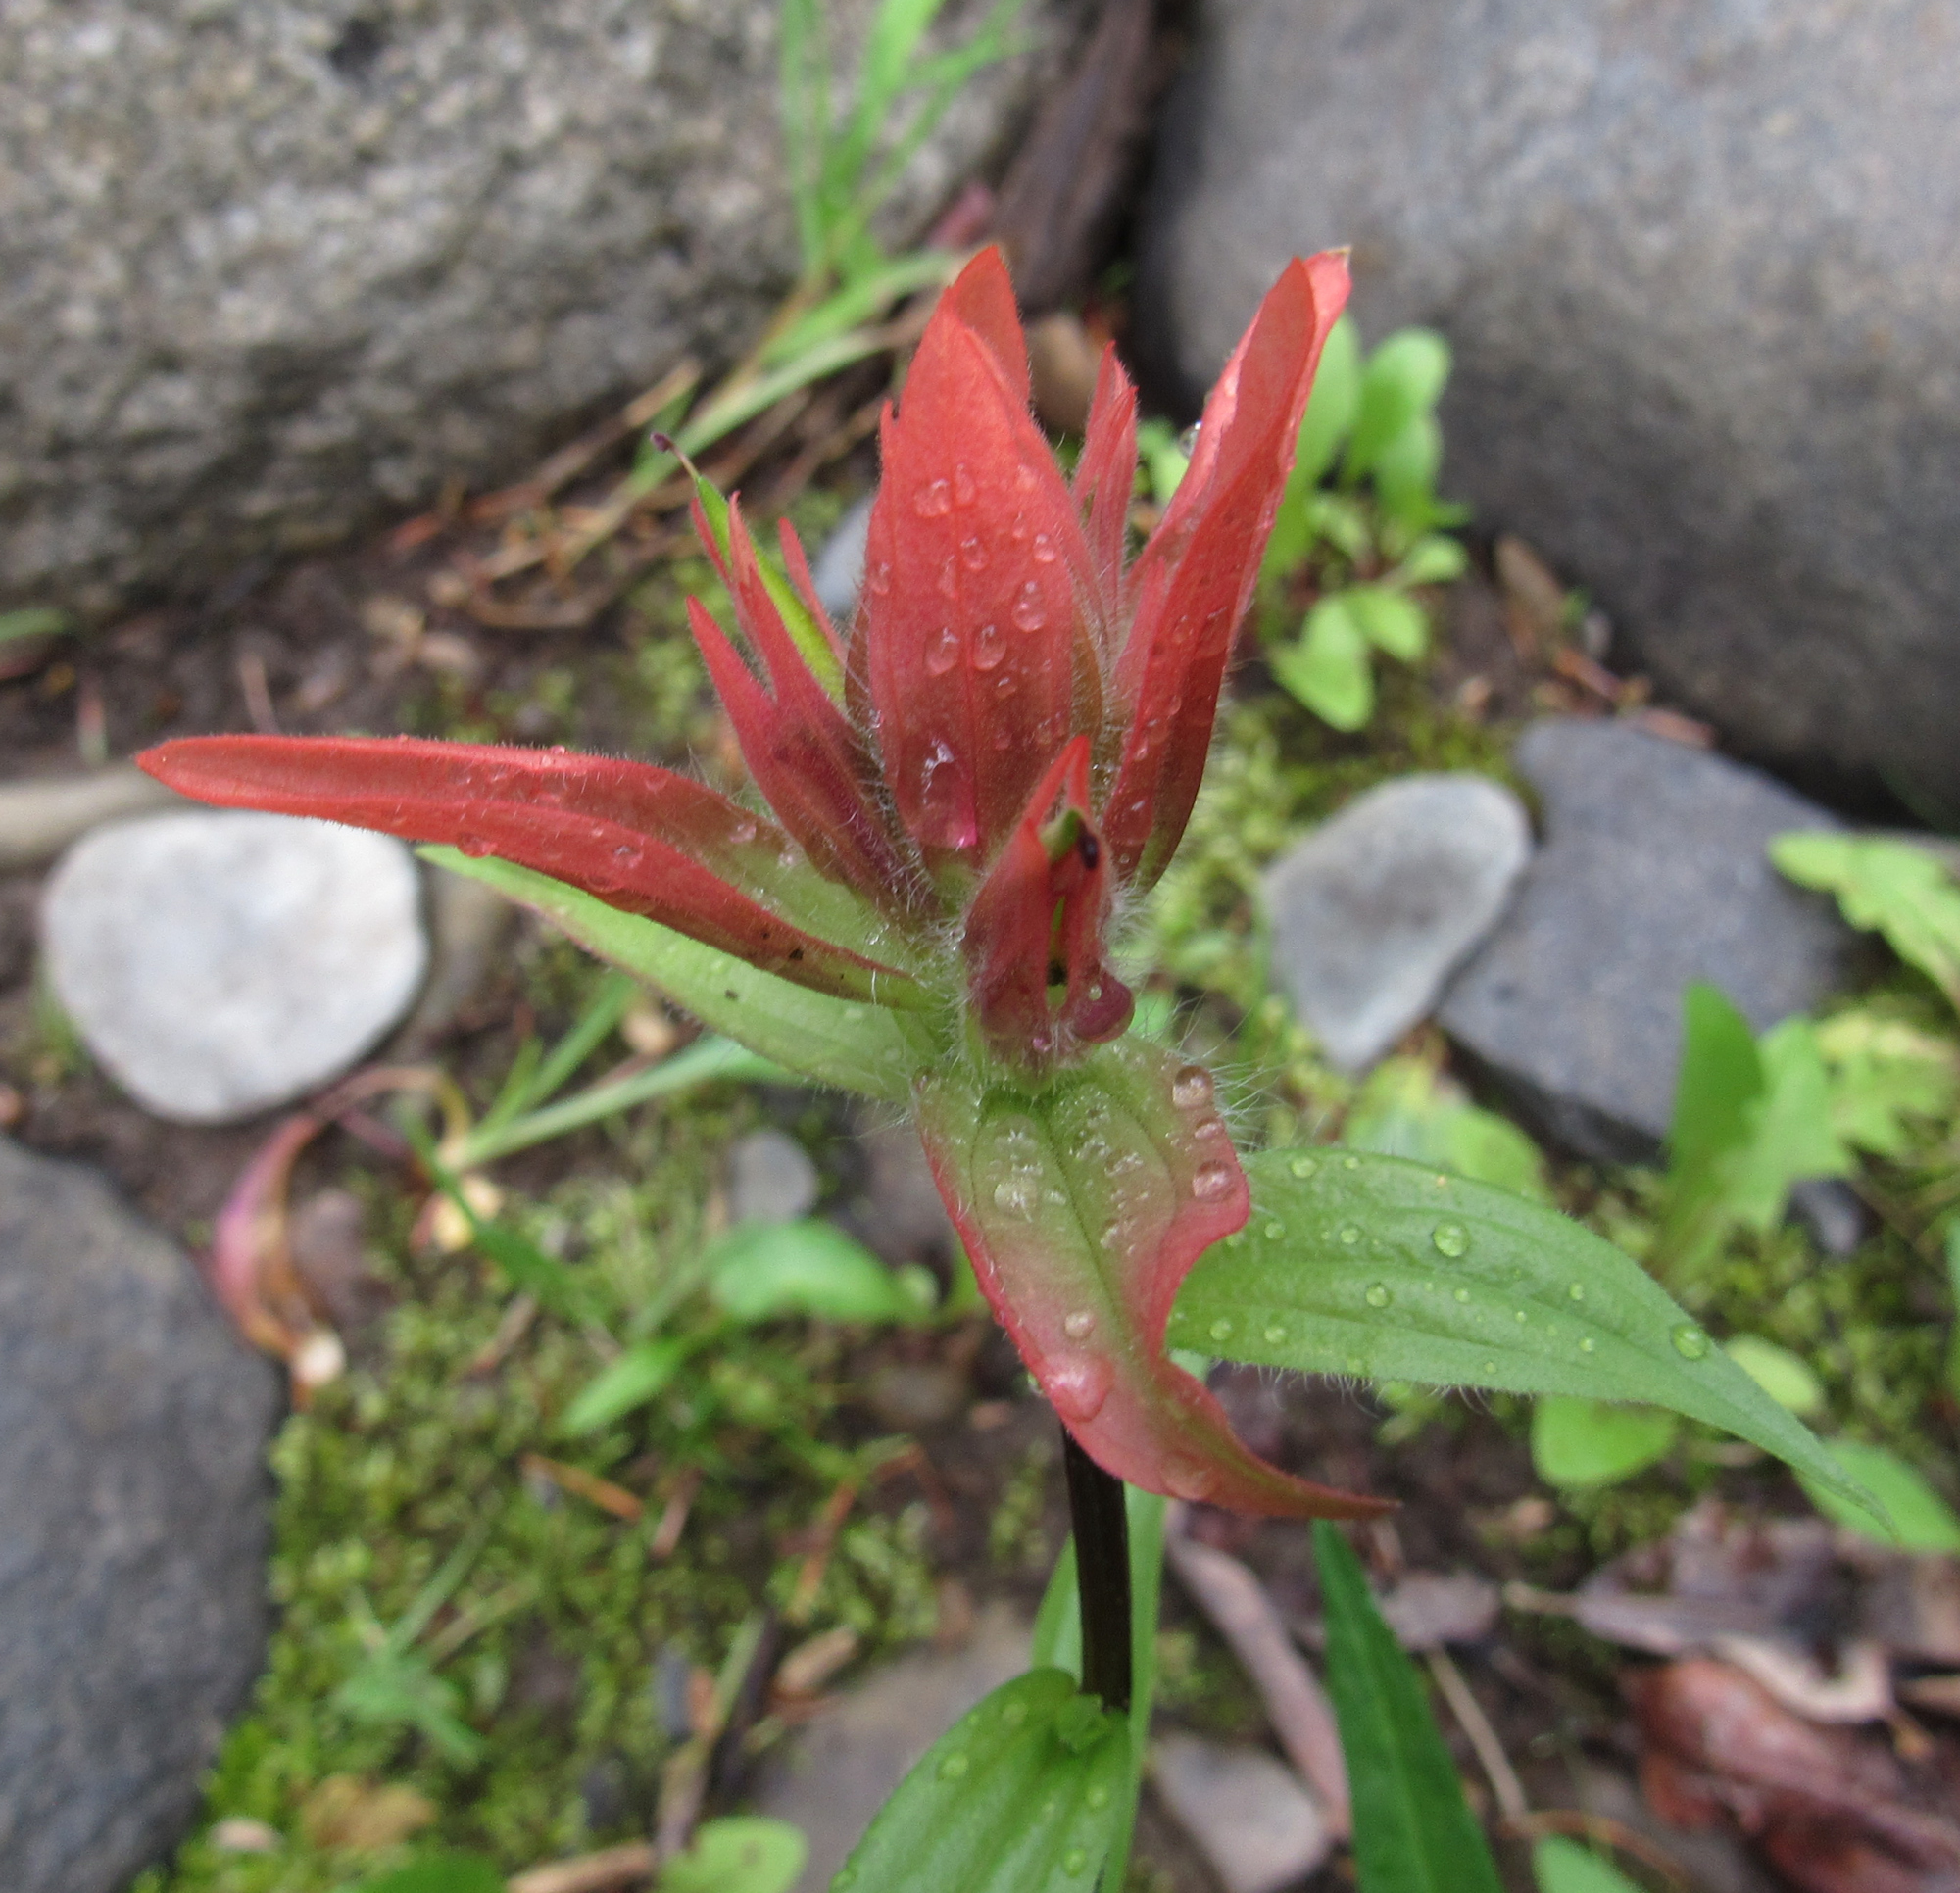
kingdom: Plantae
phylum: Tracheophyta
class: Magnoliopsida
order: Lamiales
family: Orobanchaceae
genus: Castilleja
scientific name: Castilleja miniata
